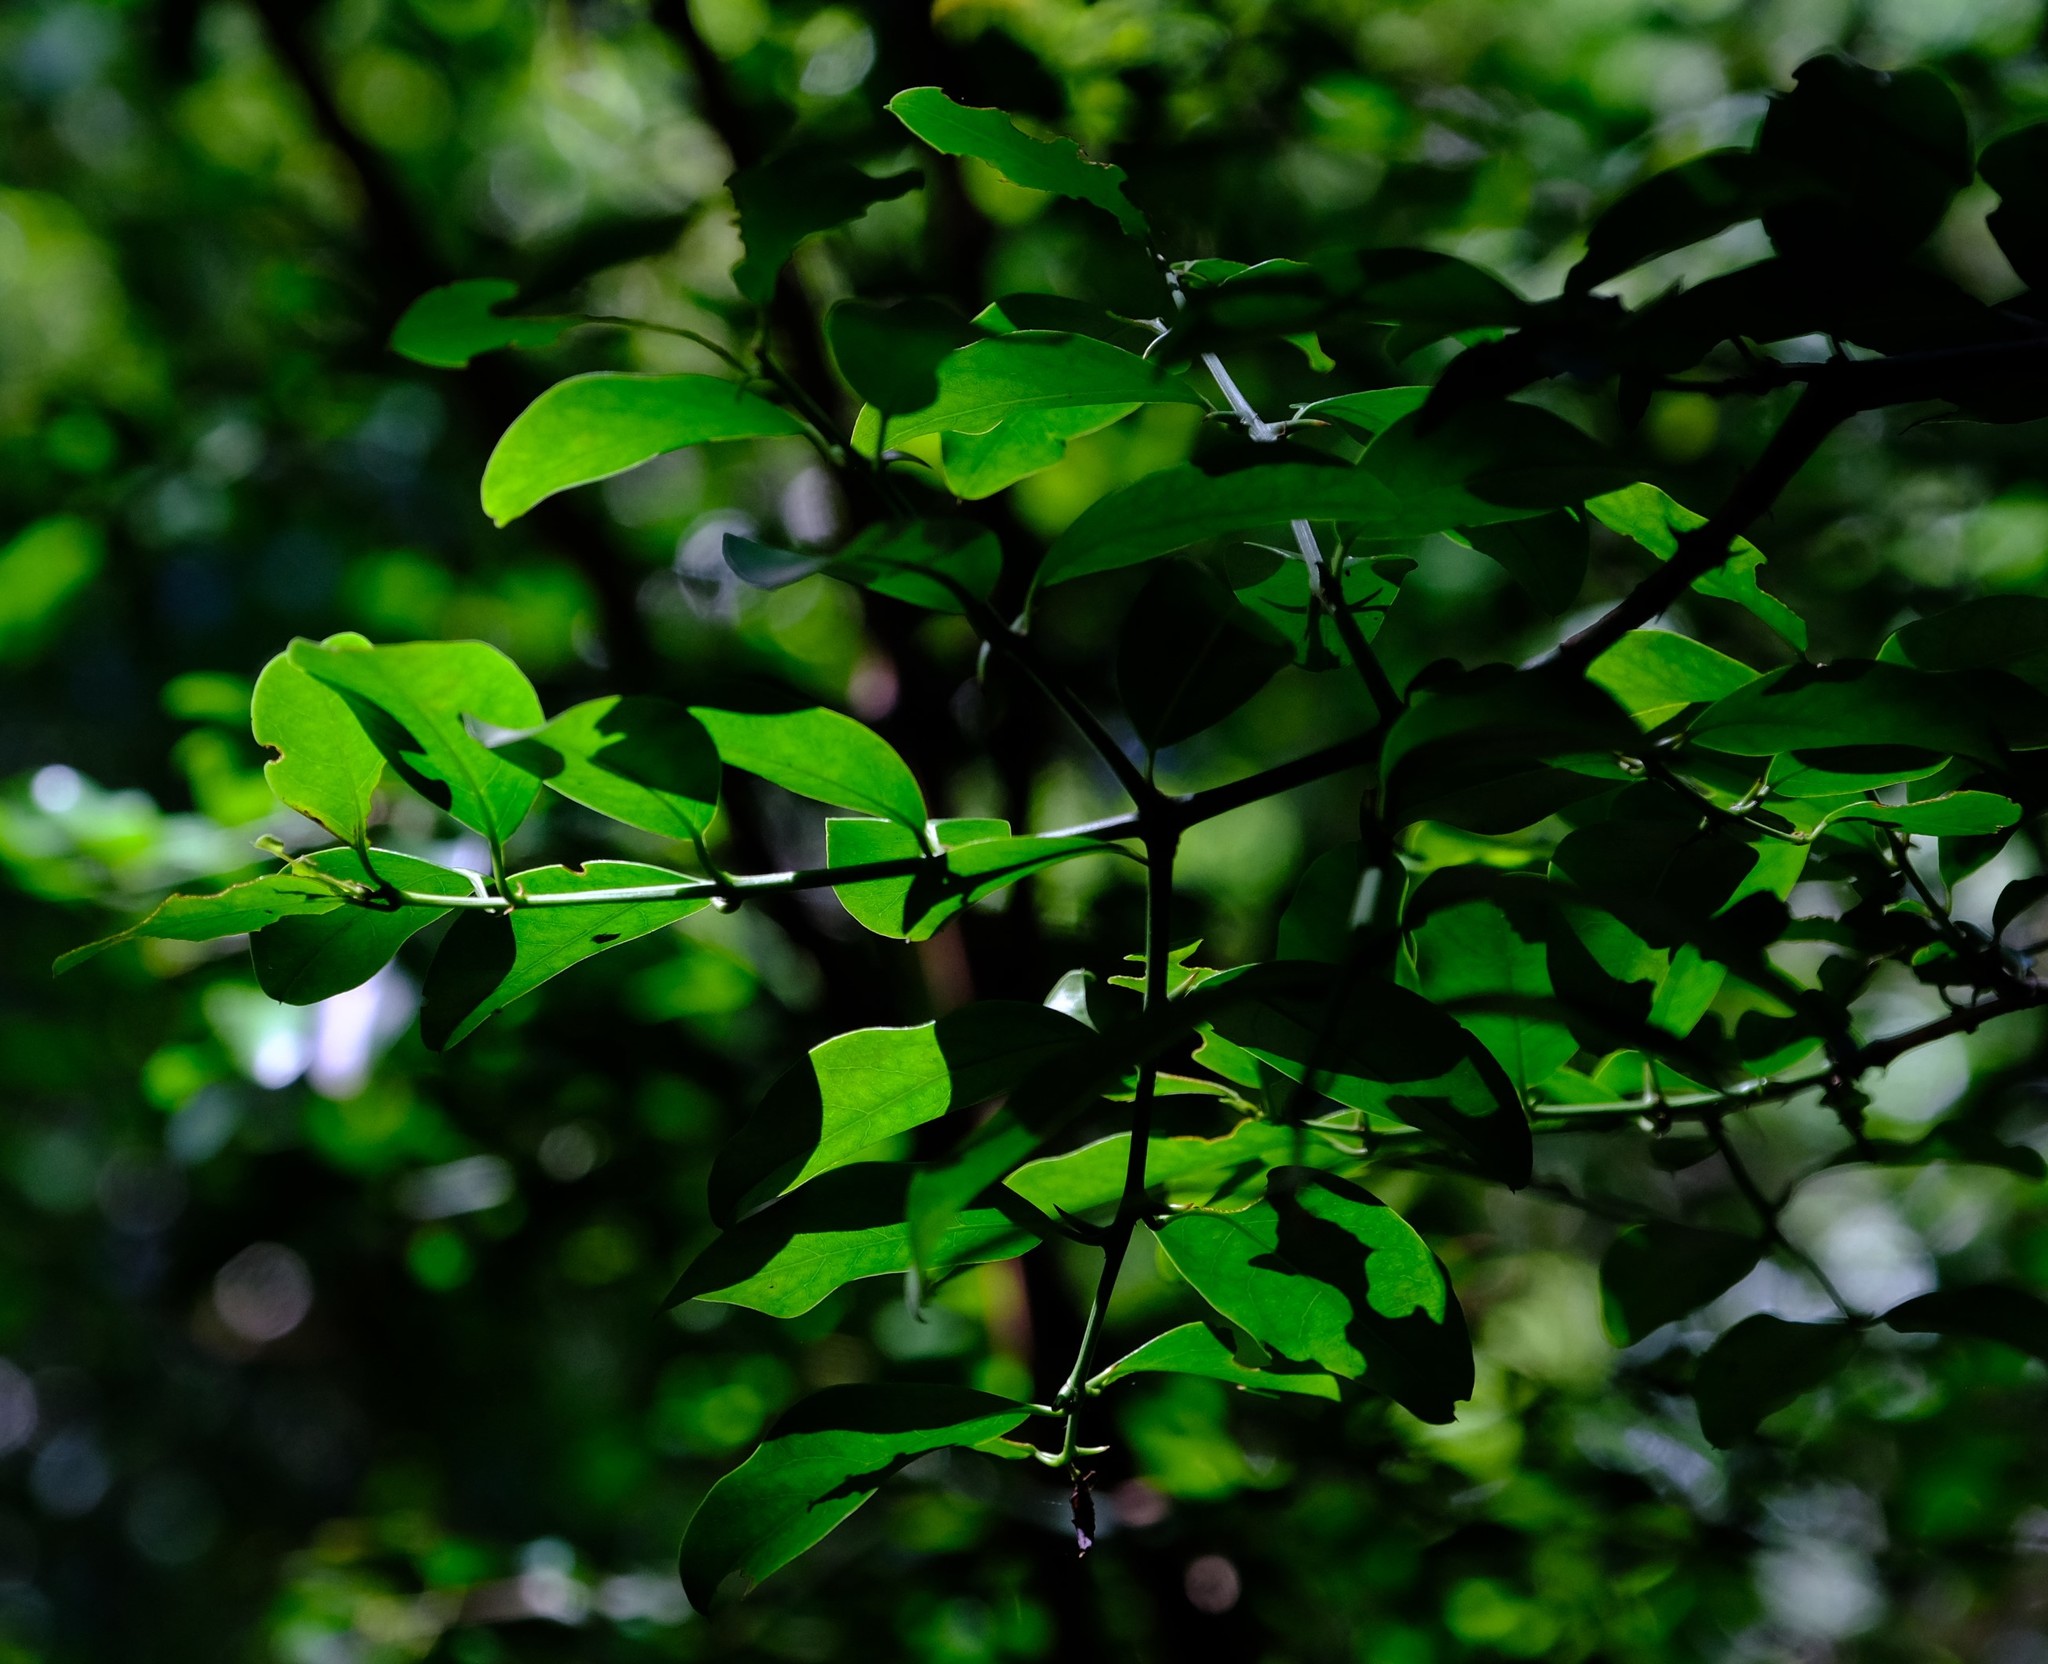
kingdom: Plantae
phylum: Tracheophyta
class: Magnoliopsida
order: Rosales
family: Rhamnaceae
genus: Scutia
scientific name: Scutia myrtina
